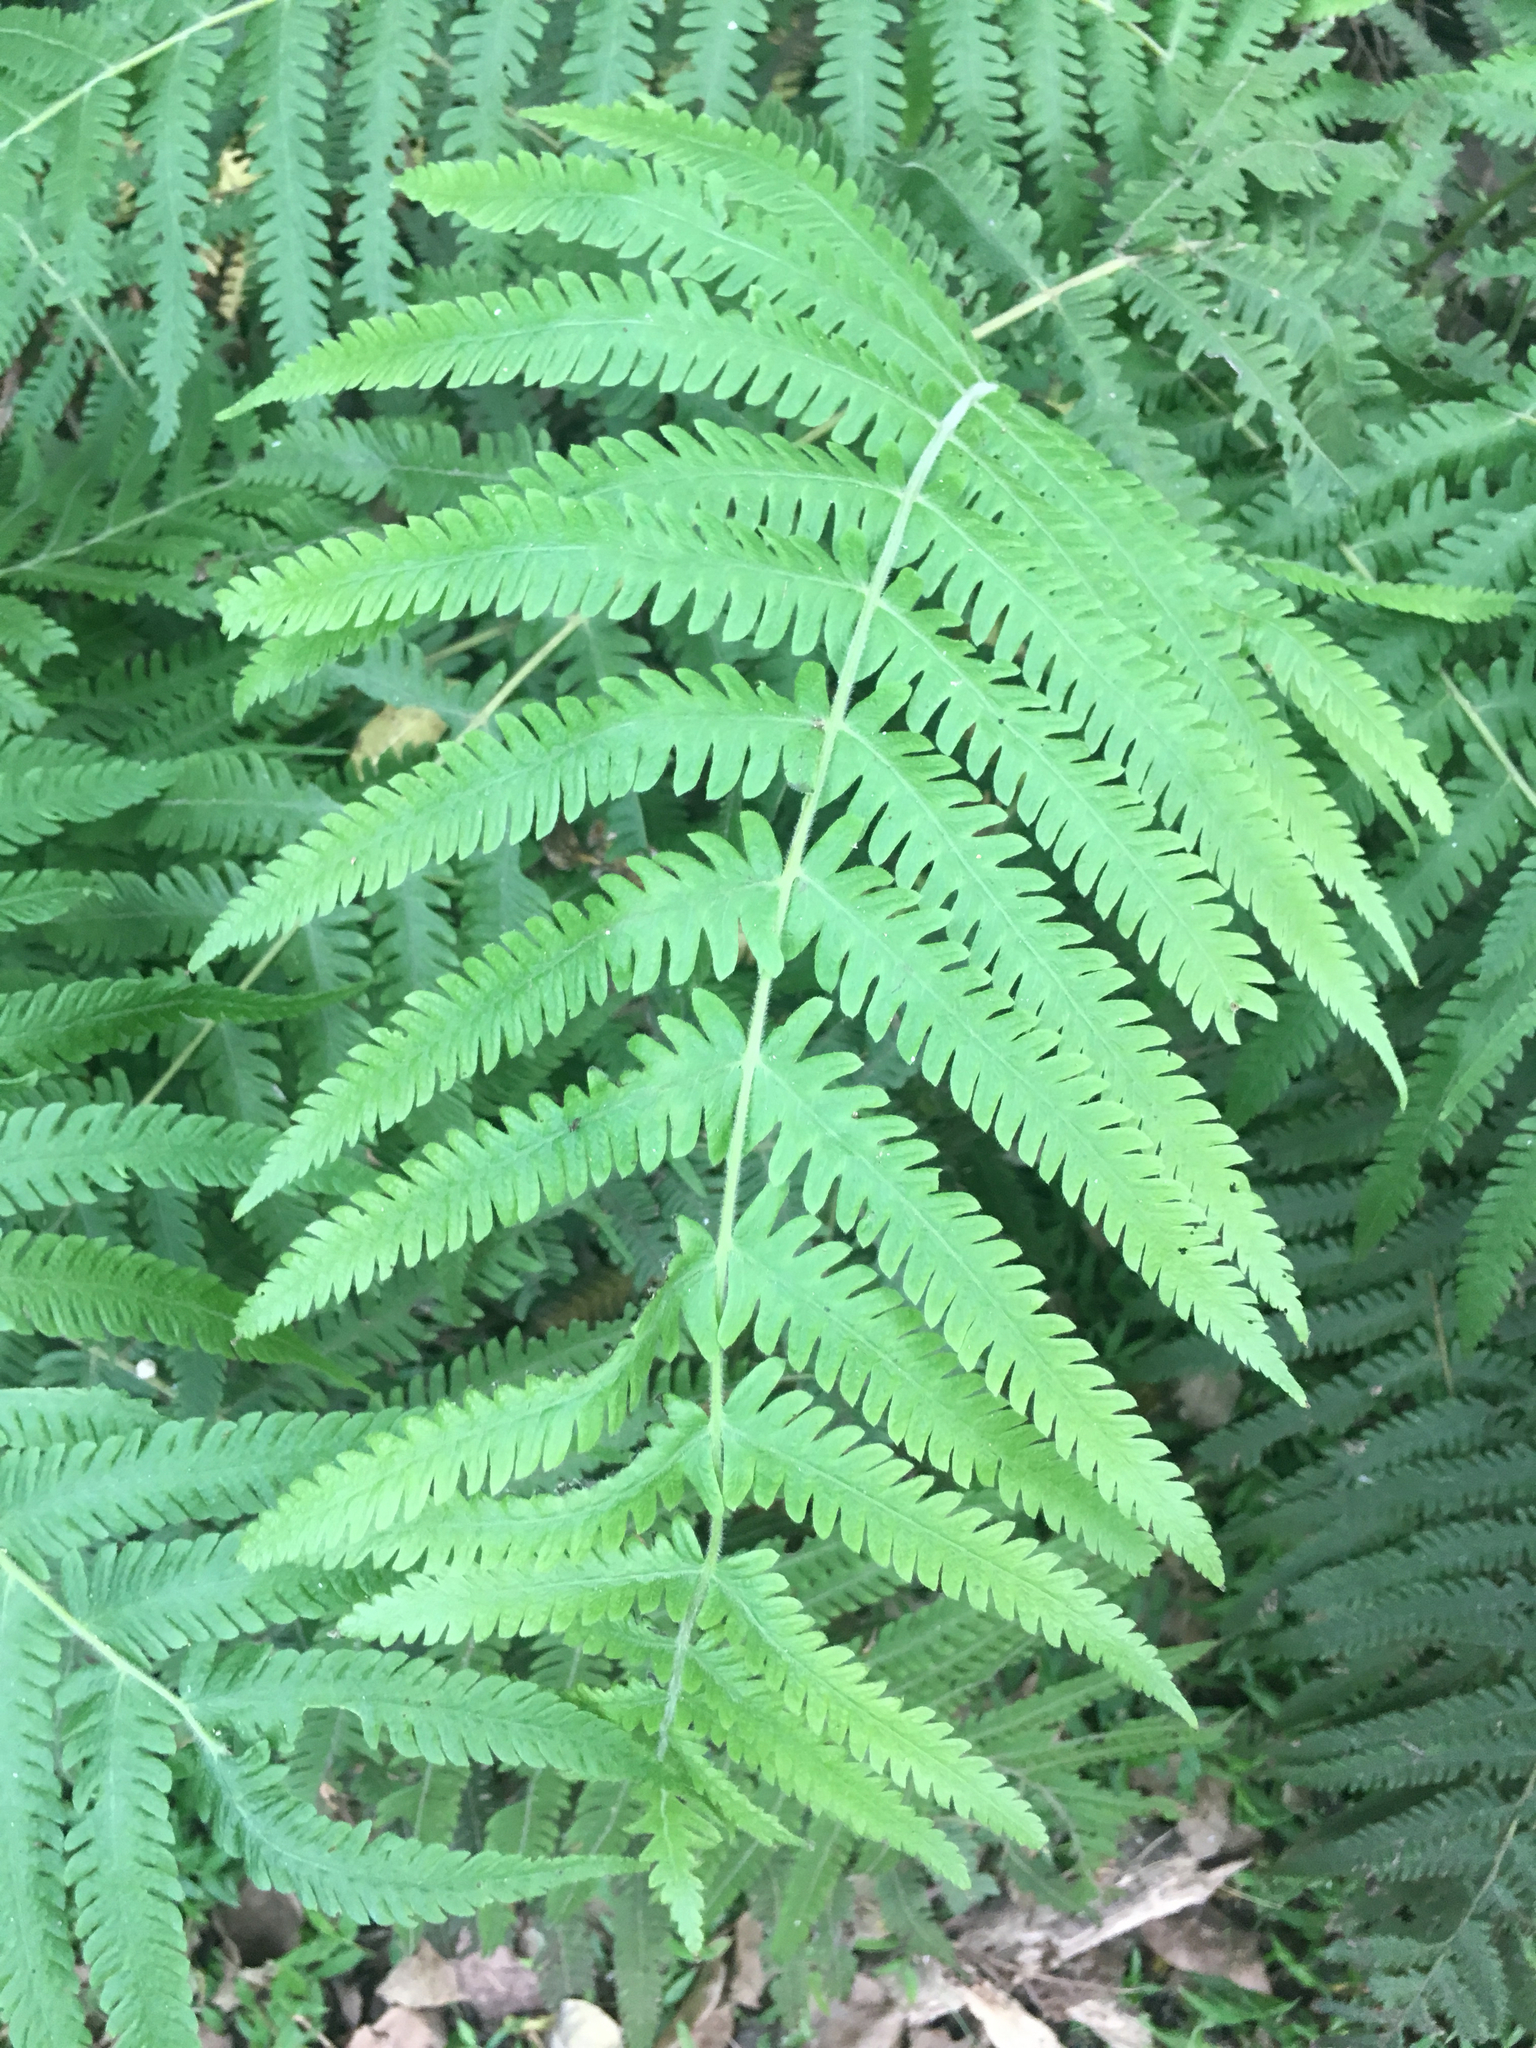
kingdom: Plantae
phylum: Tracheophyta
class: Polypodiopsida
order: Polypodiales
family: Thelypteridaceae
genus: Pelazoneuron
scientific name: Pelazoneuron kunthii
